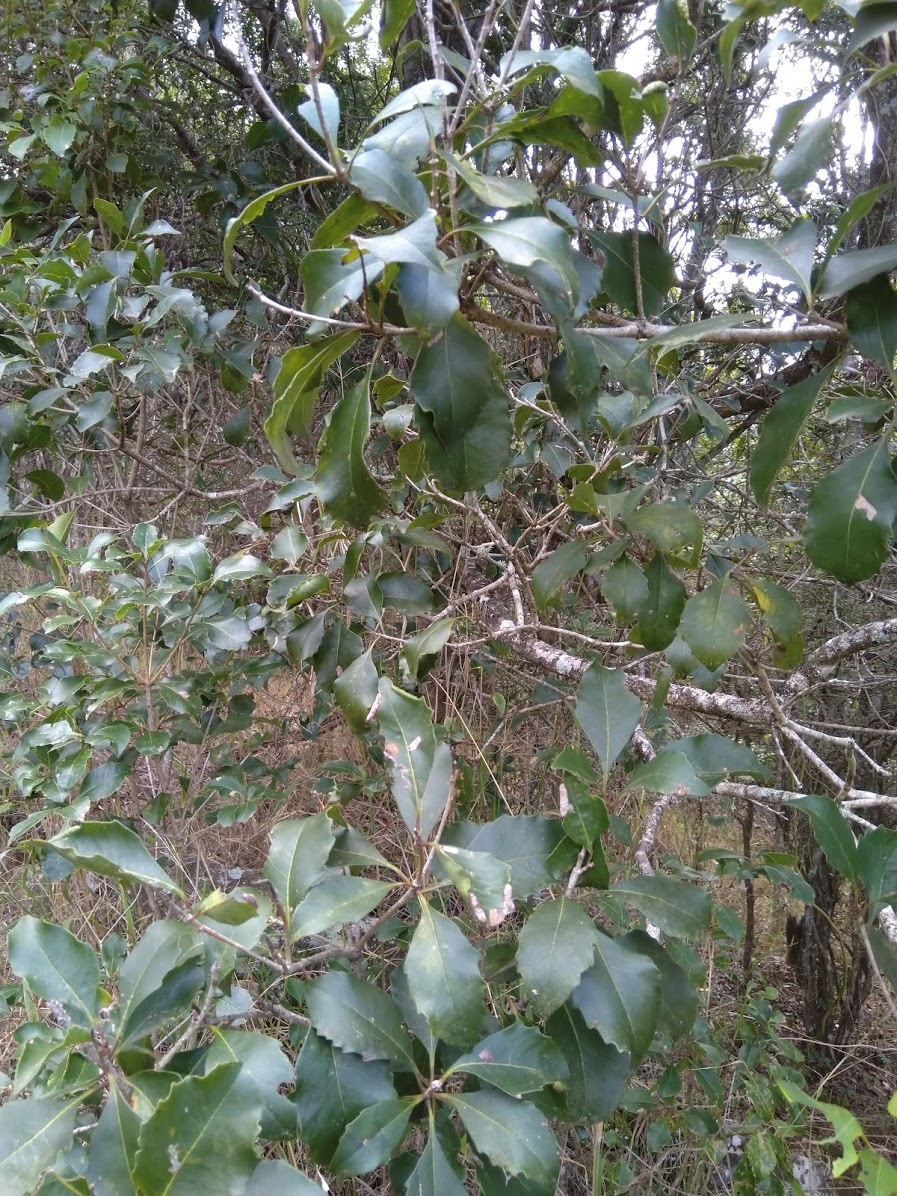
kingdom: Plantae
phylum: Tracheophyta
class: Magnoliopsida
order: Apiales
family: Pittosporaceae
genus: Auranticarpa
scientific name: Auranticarpa rhombifolia
